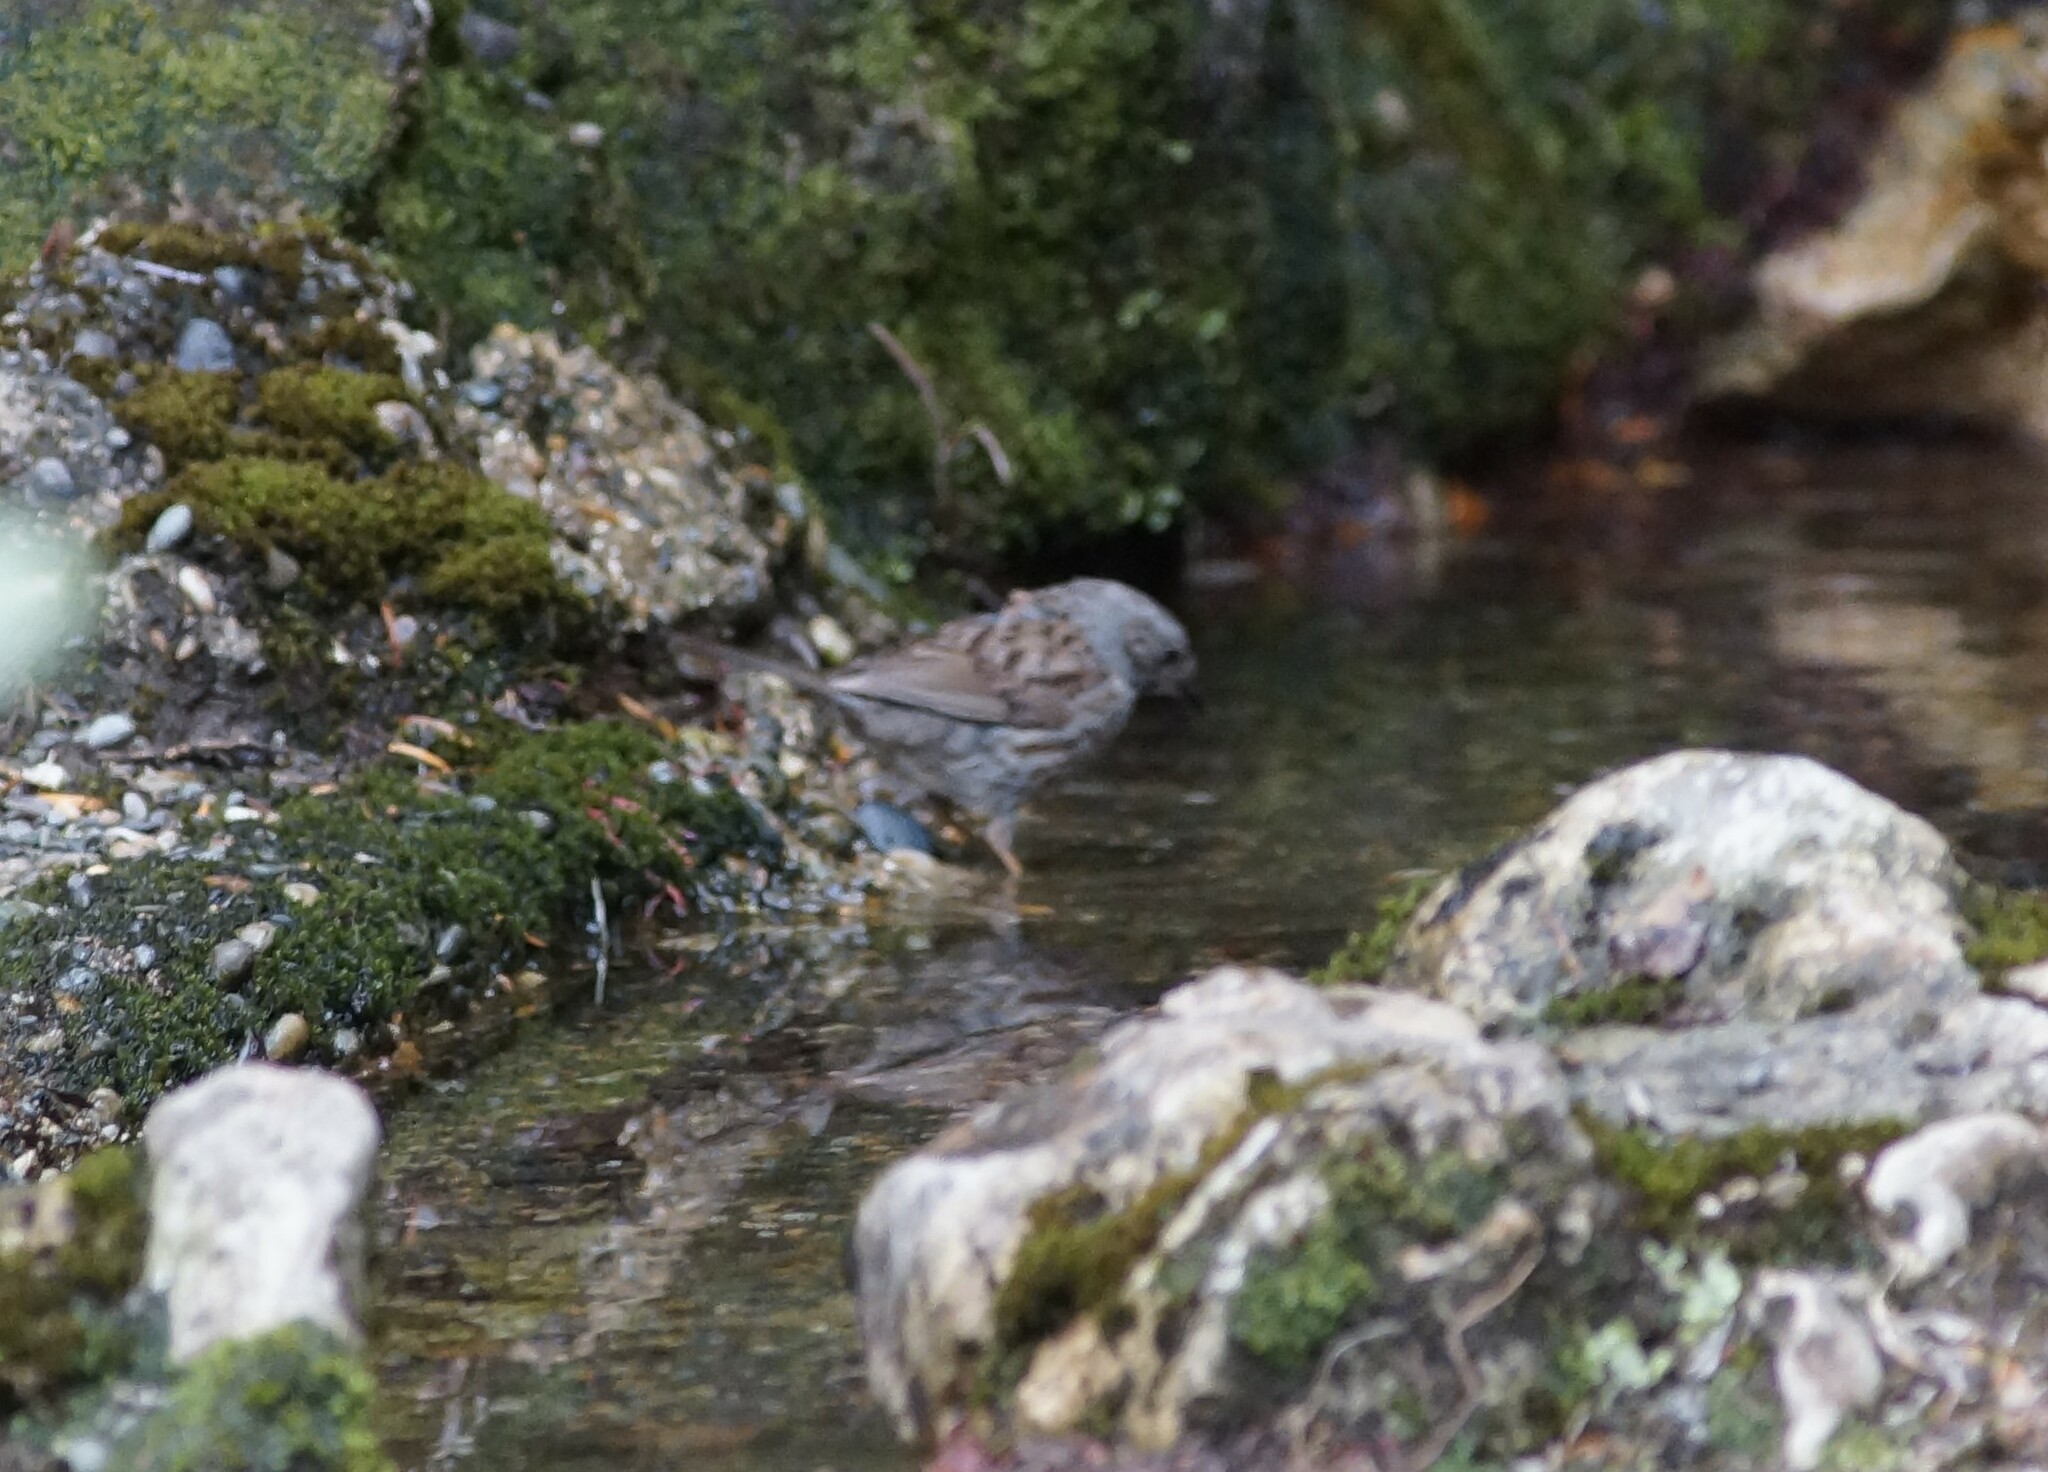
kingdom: Animalia
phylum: Chordata
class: Aves
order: Passeriformes
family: Prunellidae
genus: Prunella
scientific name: Prunella modularis
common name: Dunnock
